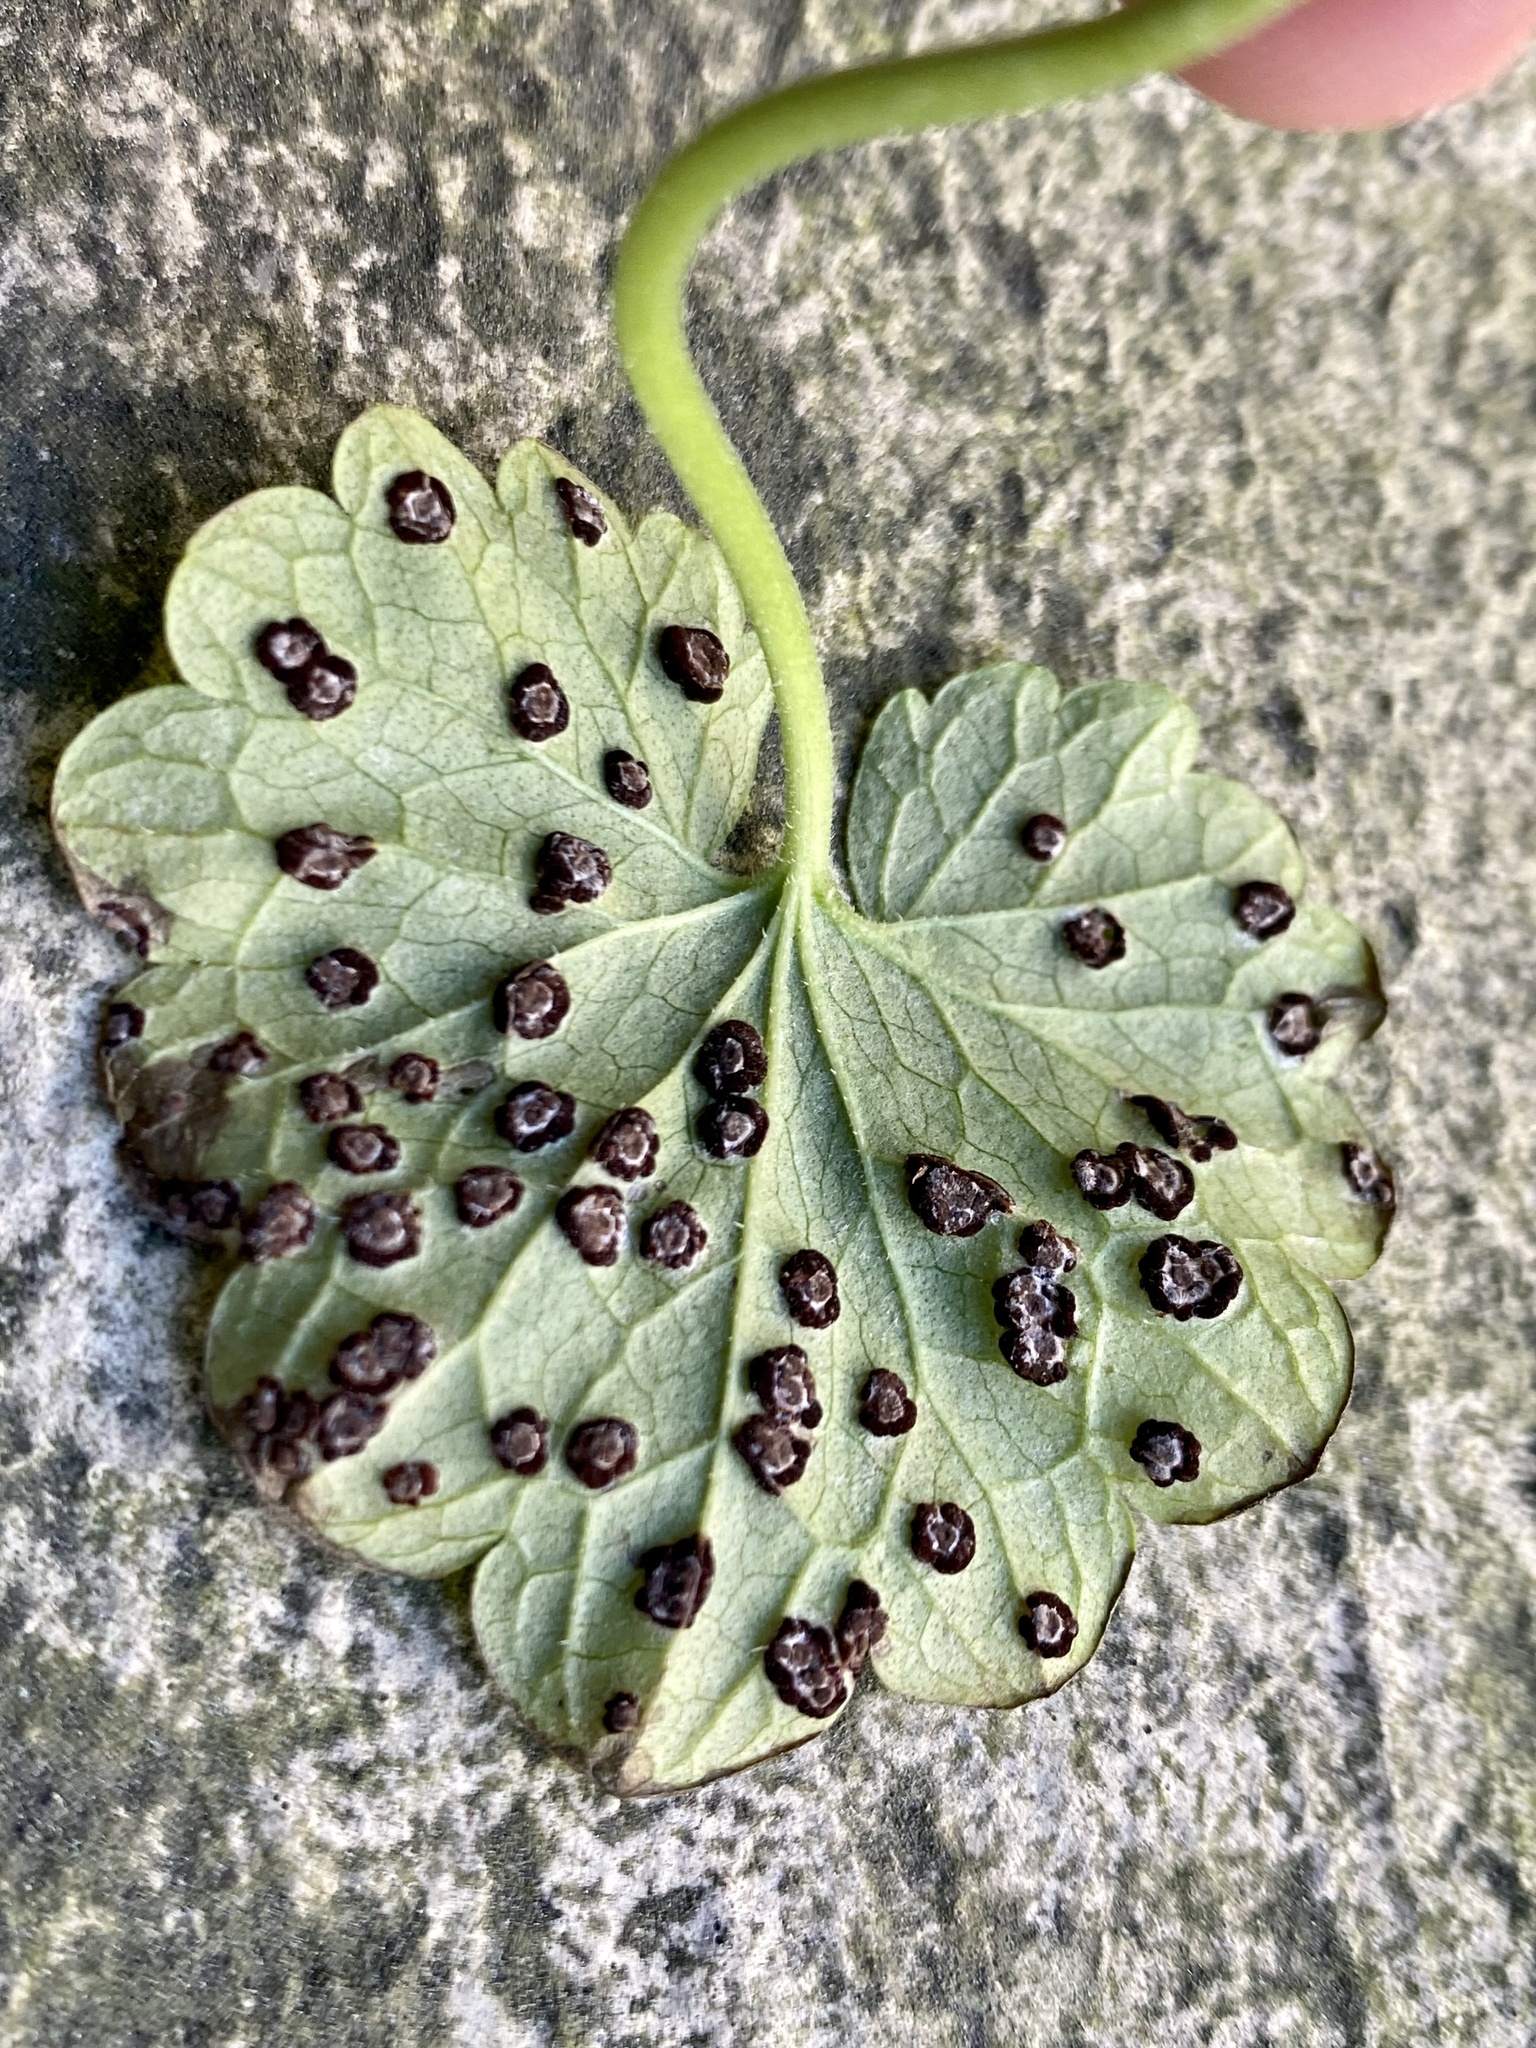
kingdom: Fungi
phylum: Basidiomycota
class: Pucciniomycetes
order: Pucciniales
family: Pucciniaceae
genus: Puccinia
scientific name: Puccinia glechomatis
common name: Ground ivy rust
